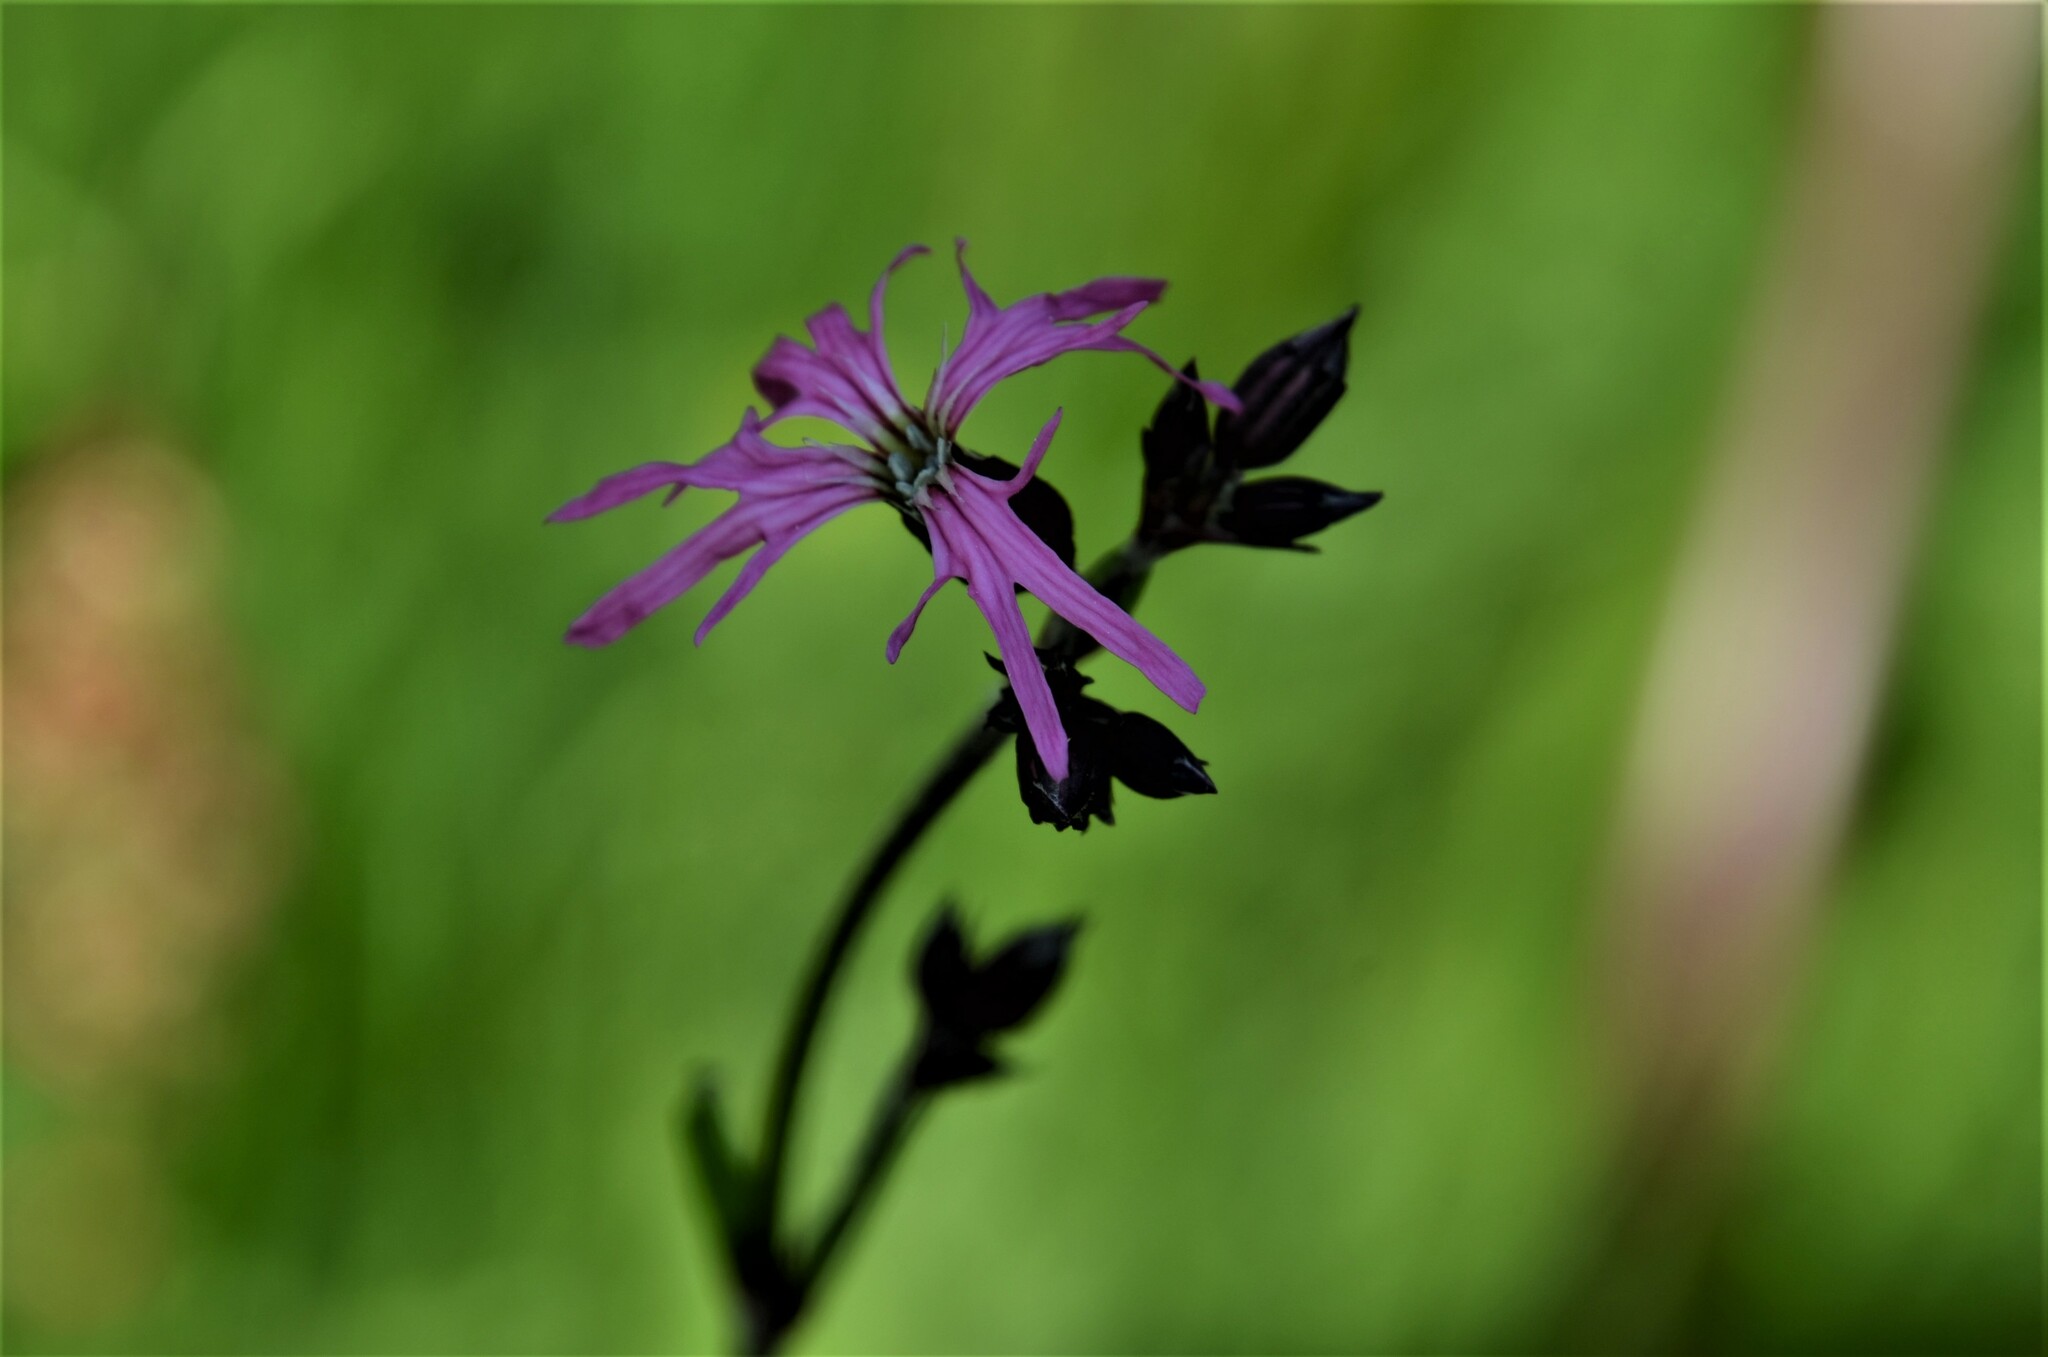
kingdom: Plantae
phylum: Tracheophyta
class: Magnoliopsida
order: Caryophyllales
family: Caryophyllaceae
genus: Silene
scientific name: Silene flos-cuculi
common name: Ragged-robin
